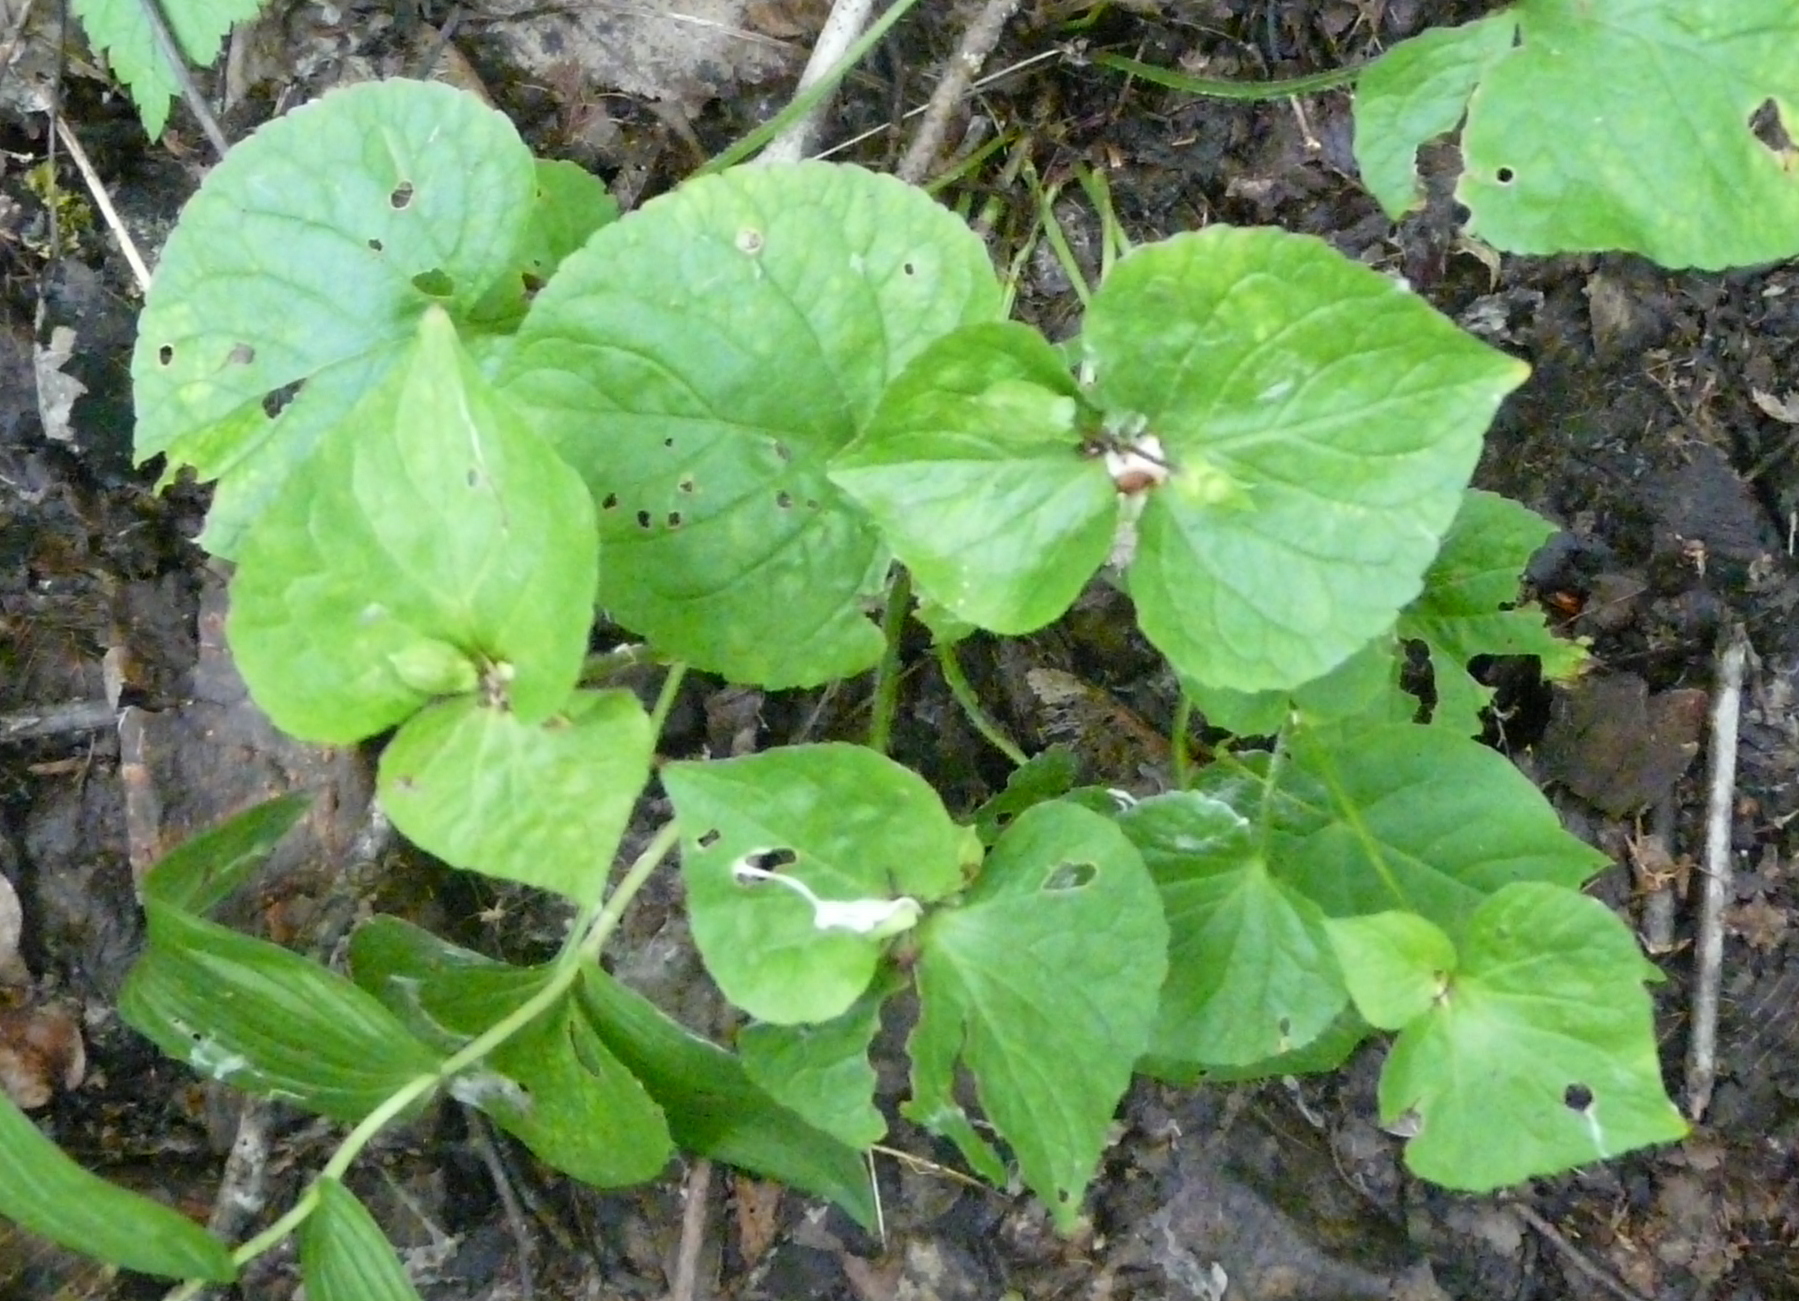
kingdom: Plantae
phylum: Tracheophyta
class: Magnoliopsida
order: Malpighiales
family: Violaceae
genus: Viola
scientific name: Viola mirabilis
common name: Wonder violet
